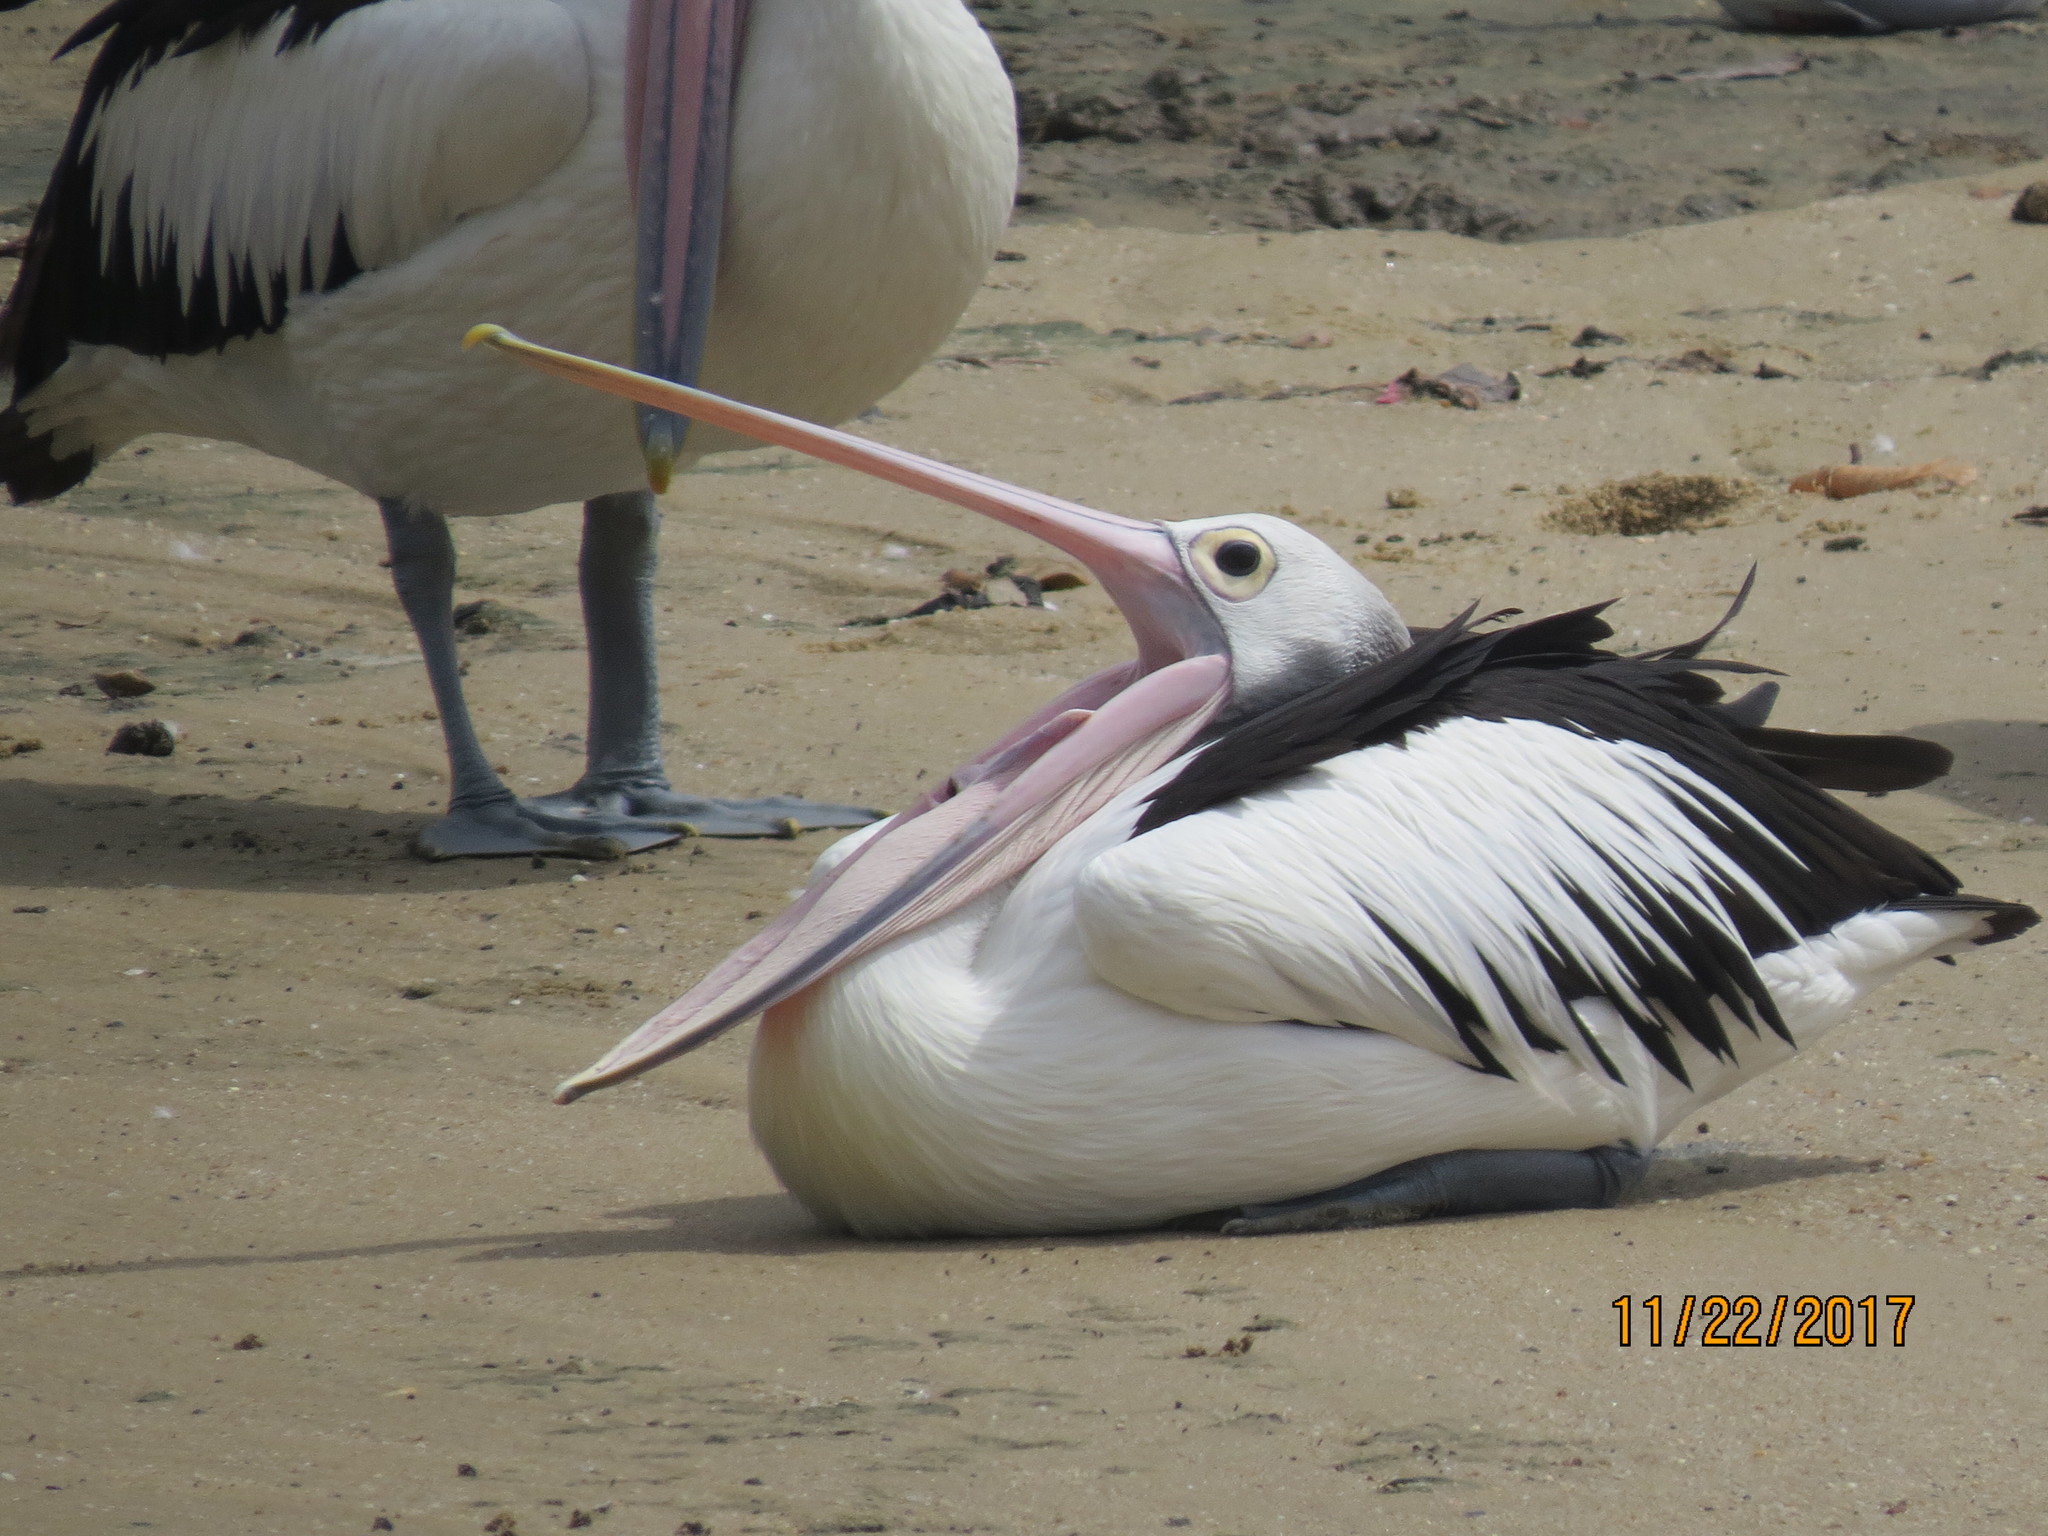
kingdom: Animalia
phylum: Chordata
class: Aves
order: Pelecaniformes
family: Pelecanidae
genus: Pelecanus
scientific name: Pelecanus conspicillatus
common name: Australian pelican
